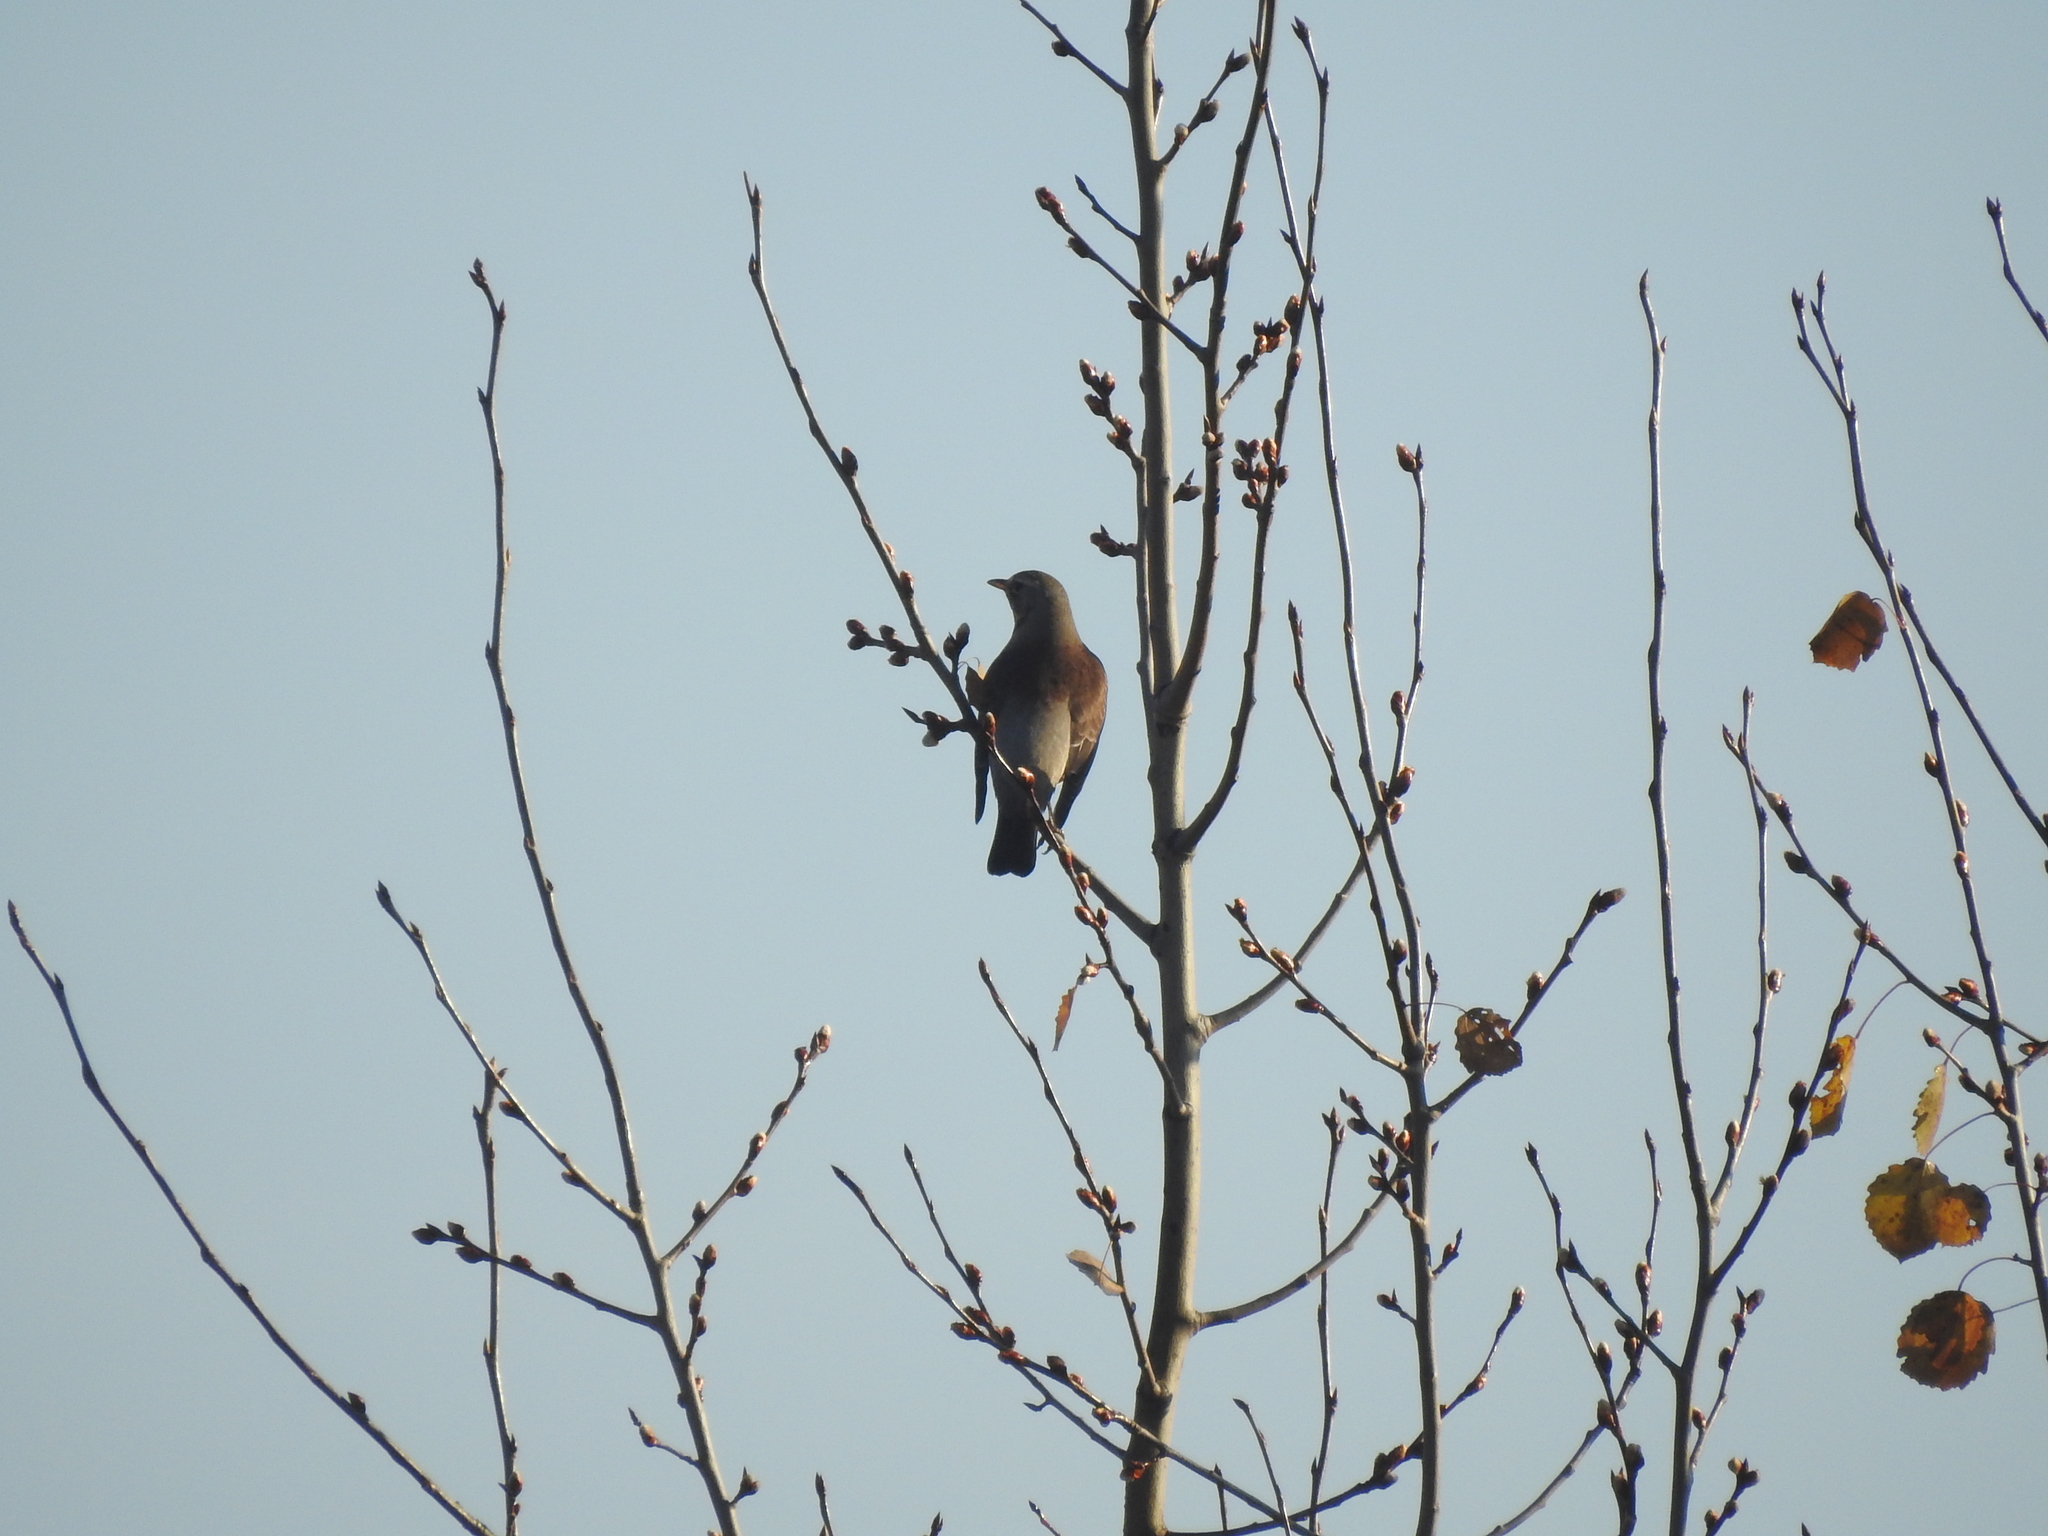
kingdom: Animalia
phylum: Chordata
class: Aves
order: Passeriformes
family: Turdidae
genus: Turdus
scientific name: Turdus pilaris
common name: Fieldfare
